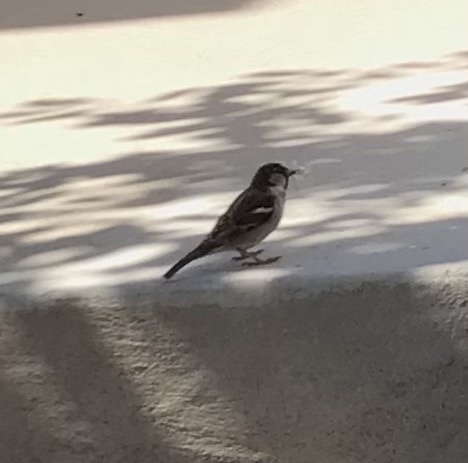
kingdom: Animalia
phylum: Chordata
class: Aves
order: Passeriformes
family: Passeridae
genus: Passer
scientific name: Passer domesticus
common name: House sparrow
